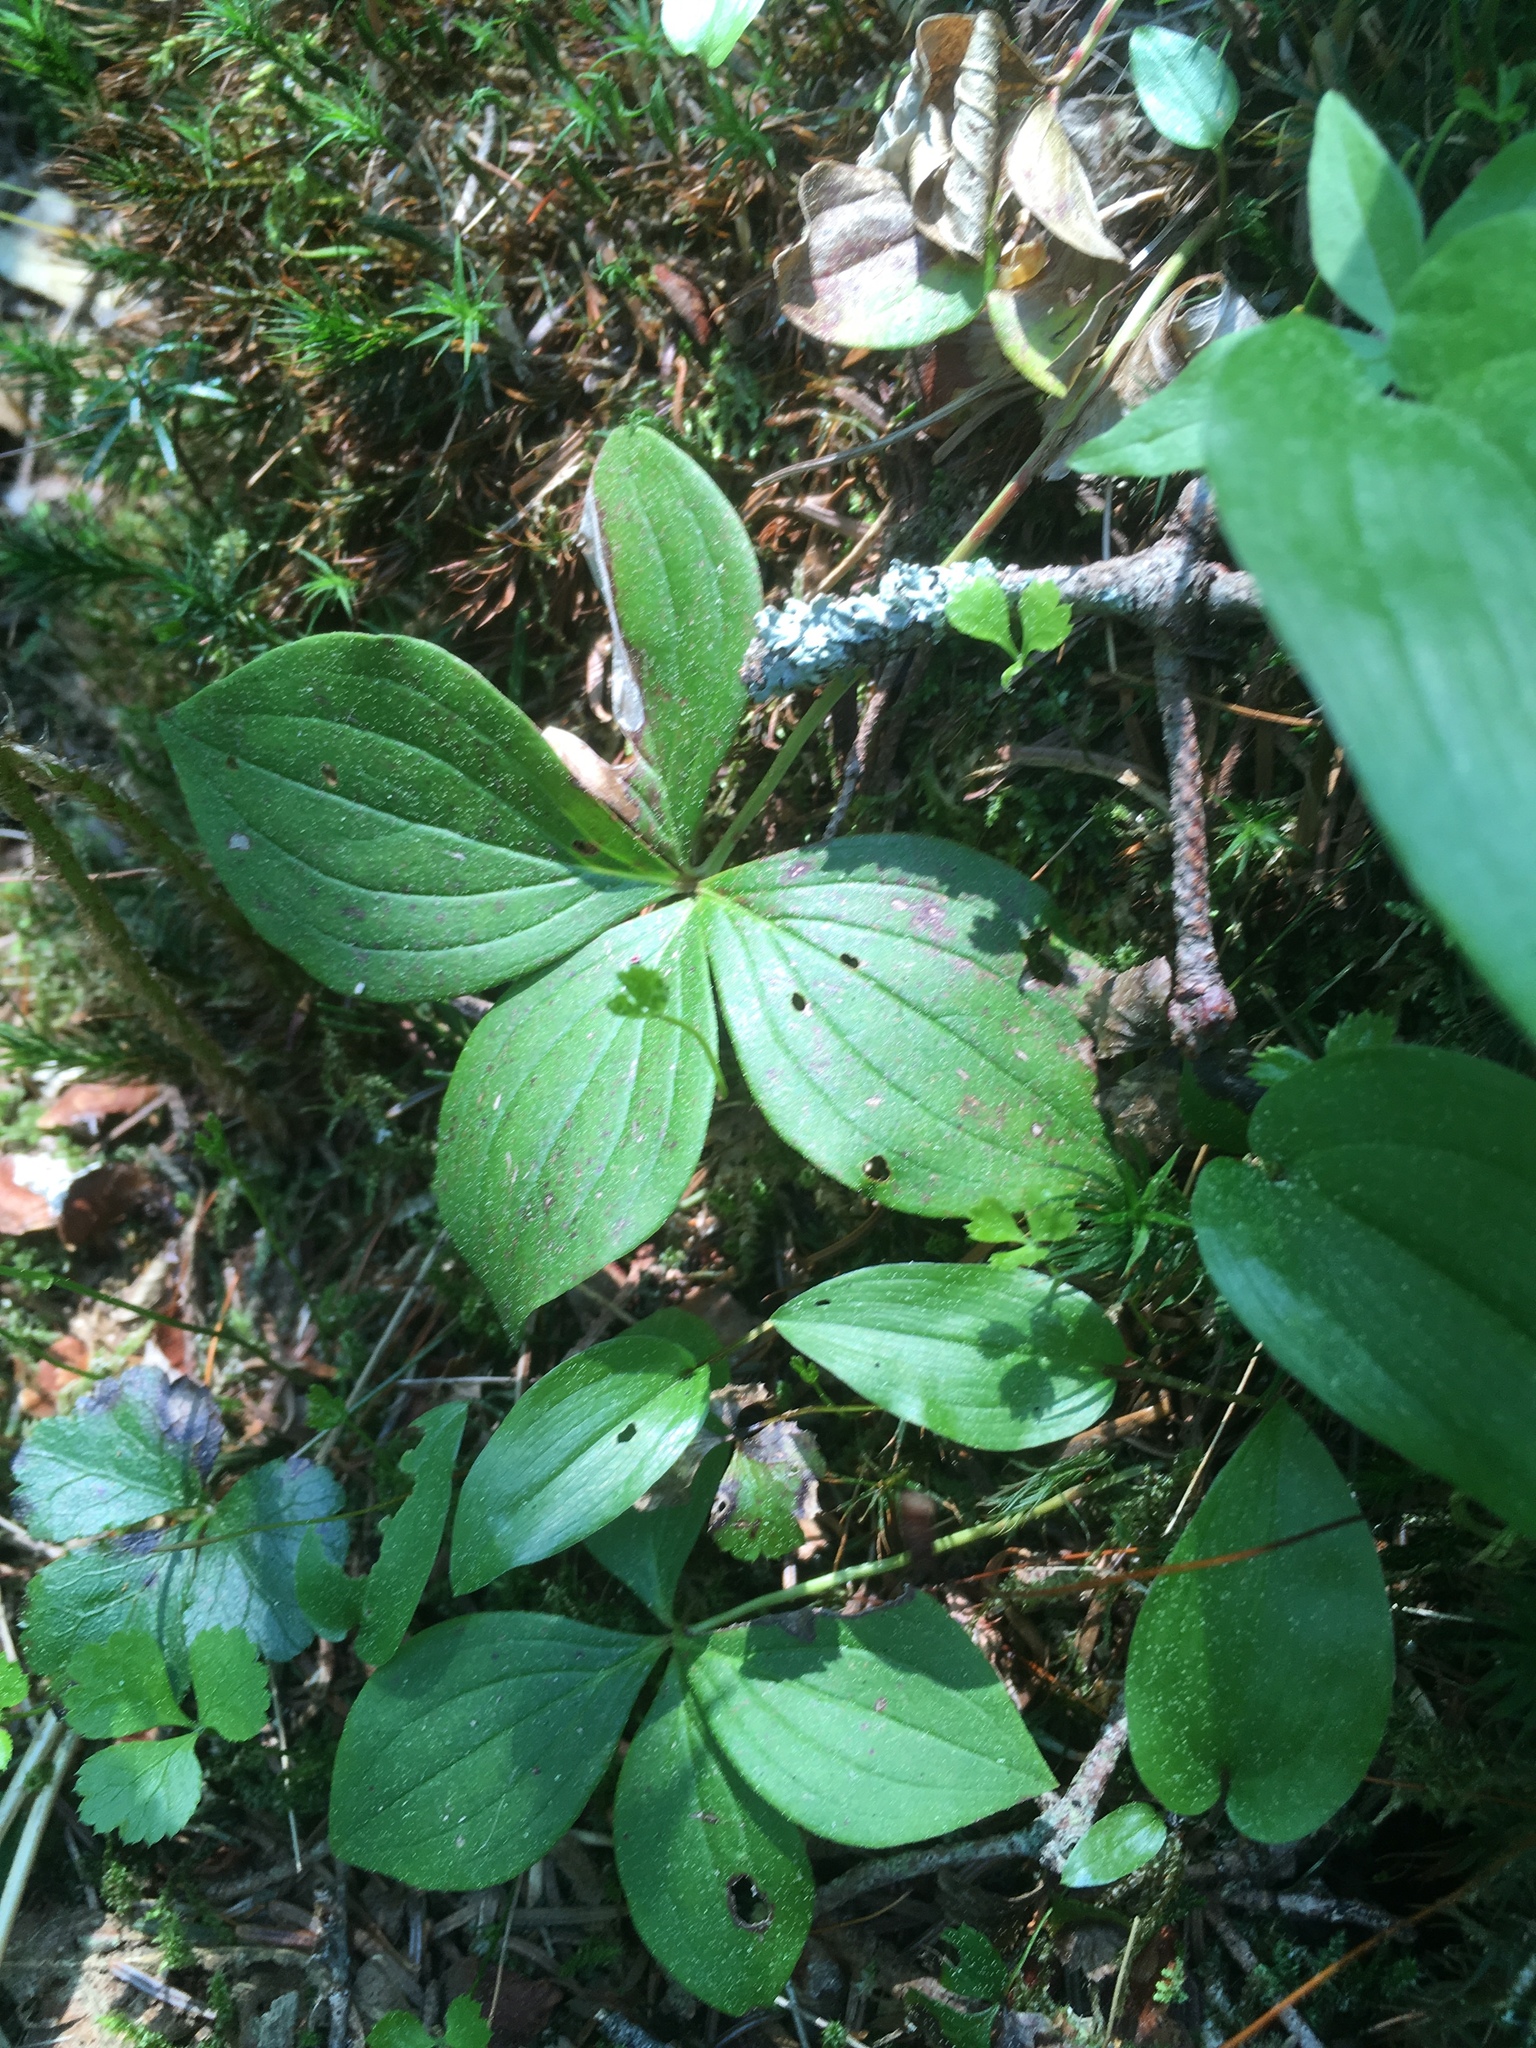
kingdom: Plantae
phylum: Tracheophyta
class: Magnoliopsida
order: Cornales
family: Cornaceae
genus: Cornus
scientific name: Cornus canadensis
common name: Creeping dogwood
